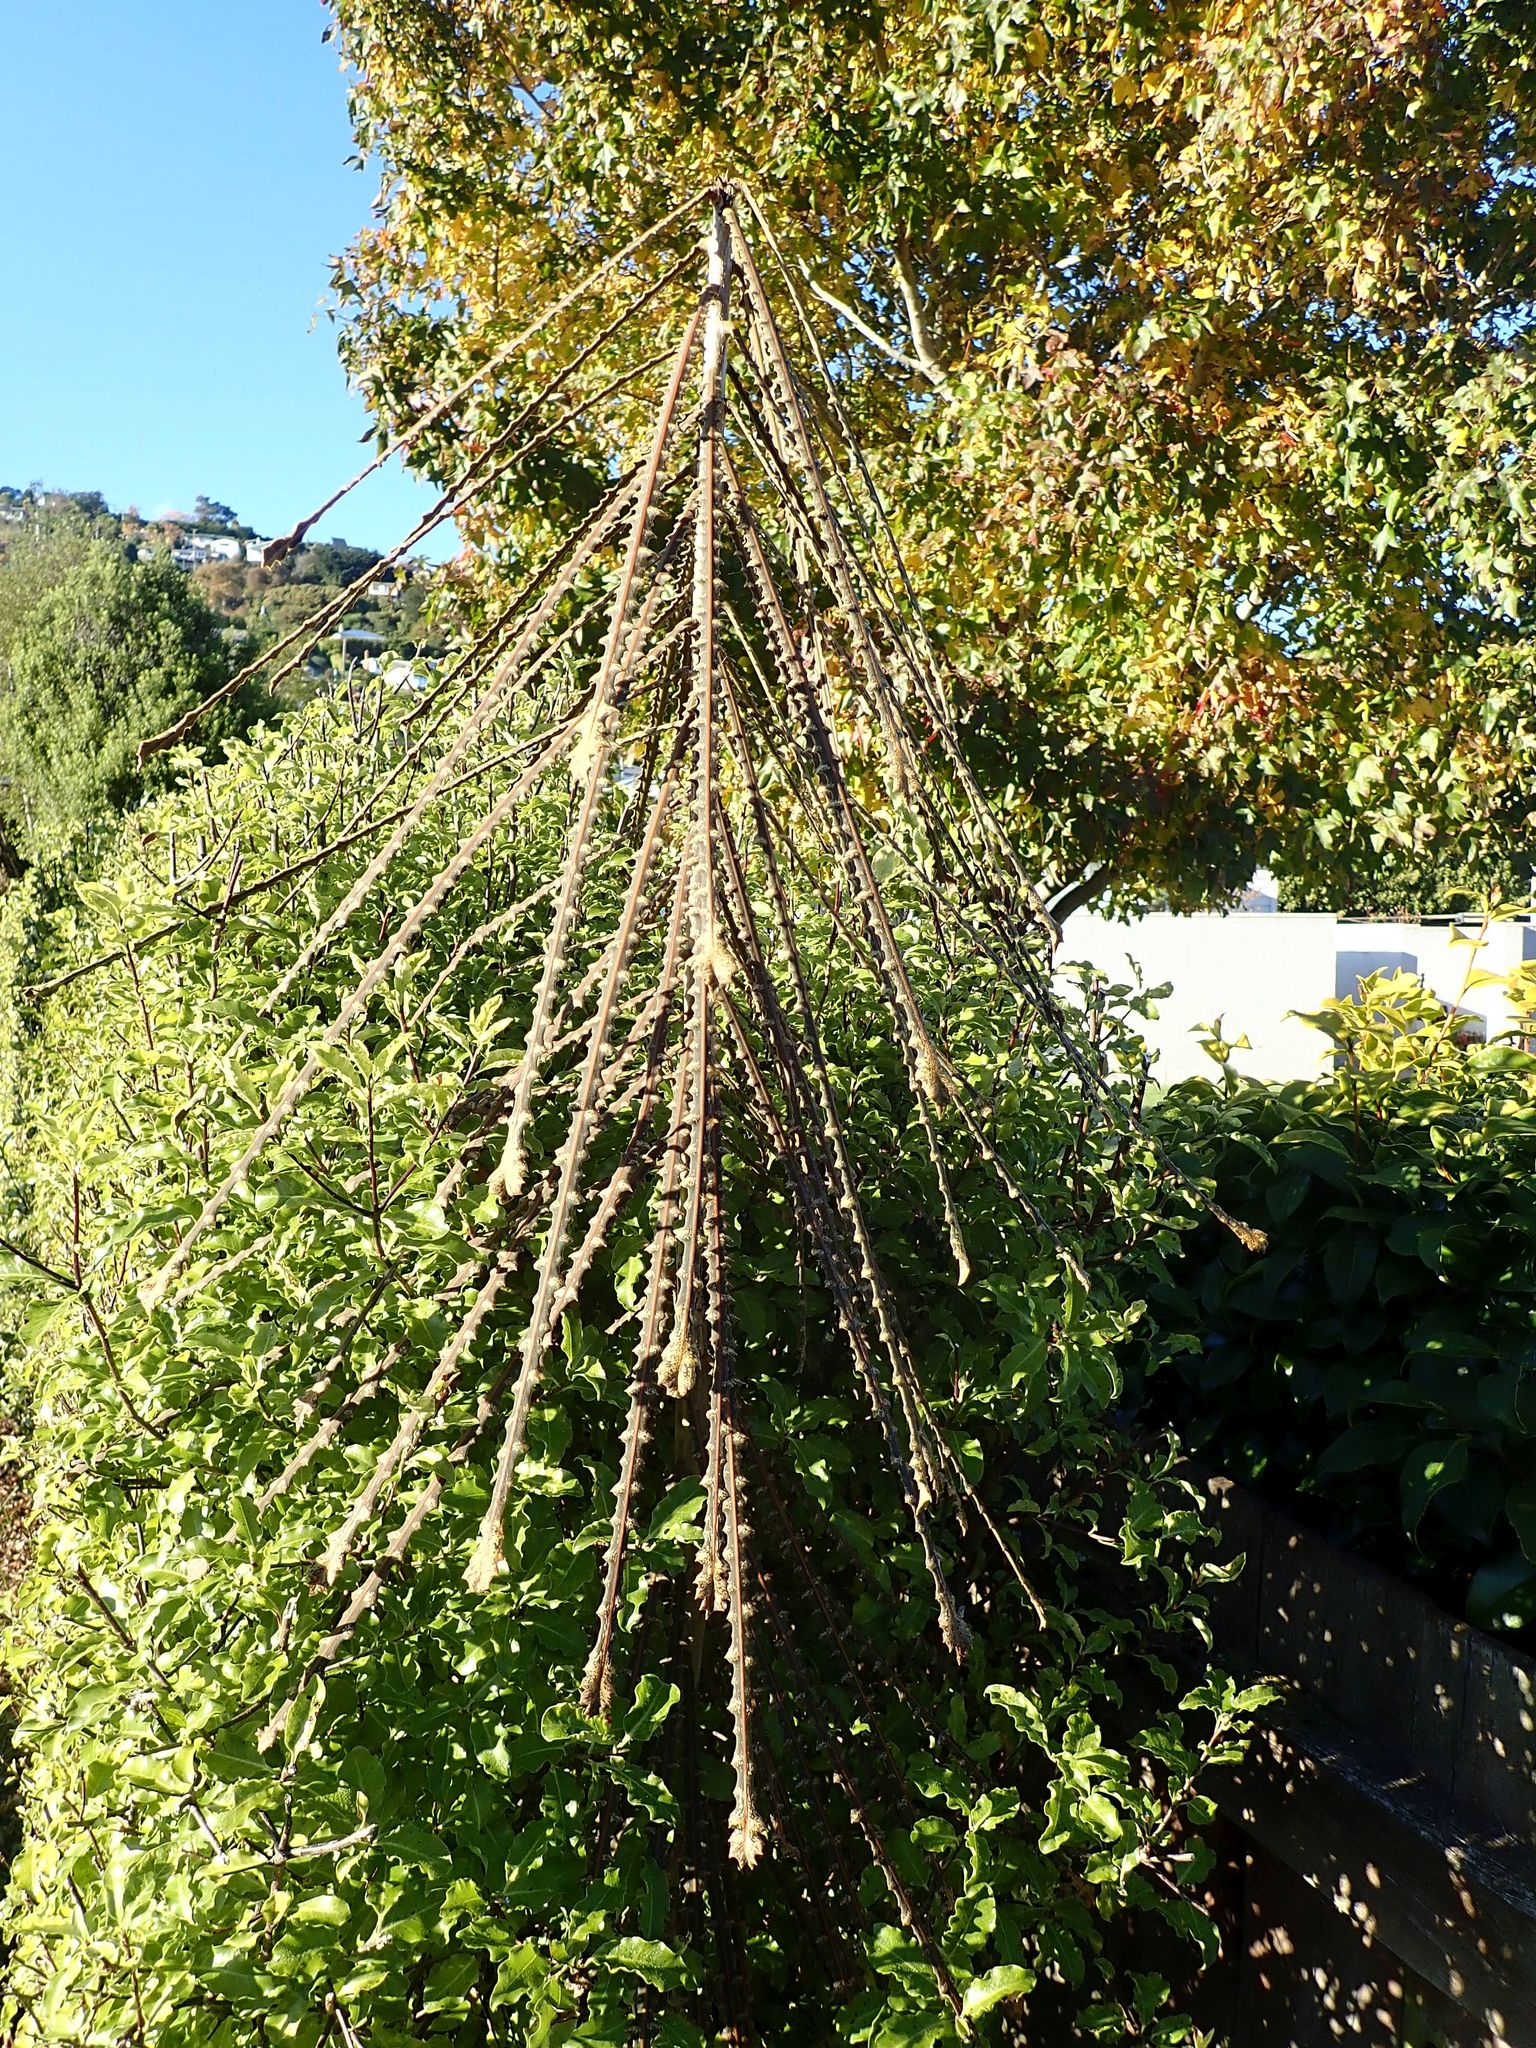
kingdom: Plantae
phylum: Tracheophyta
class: Magnoliopsida
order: Apiales
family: Araliaceae
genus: Pseudopanax
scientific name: Pseudopanax ferox
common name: Fierce lancewood
